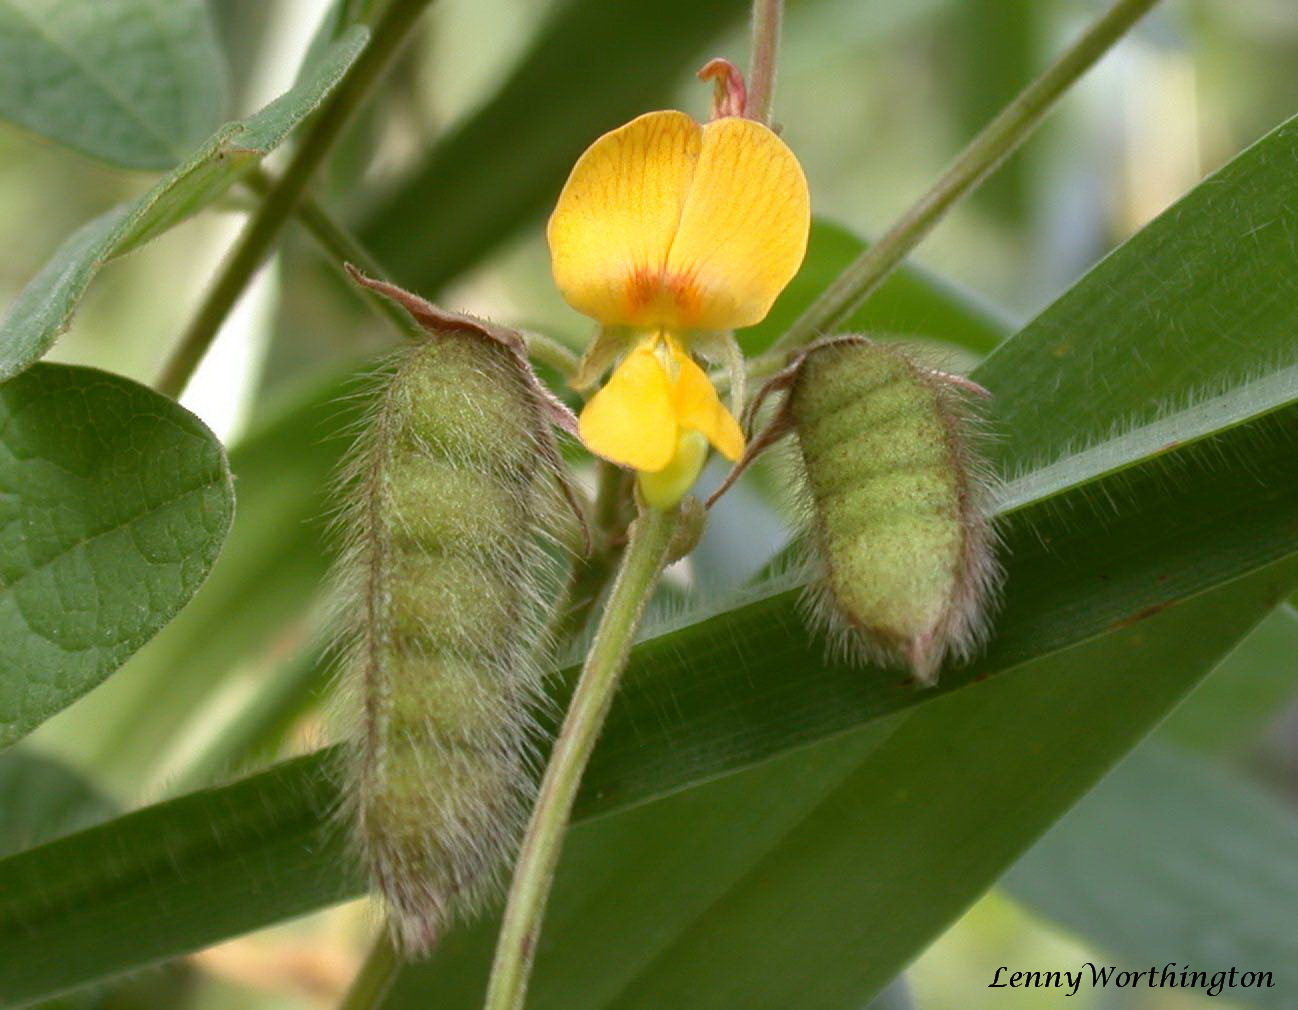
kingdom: Plantae
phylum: Tracheophyta
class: Magnoliopsida
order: Fabales
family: Fabaceae
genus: Cajanus
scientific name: Cajanus scarabaeoides
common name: Showy pigeonpea
